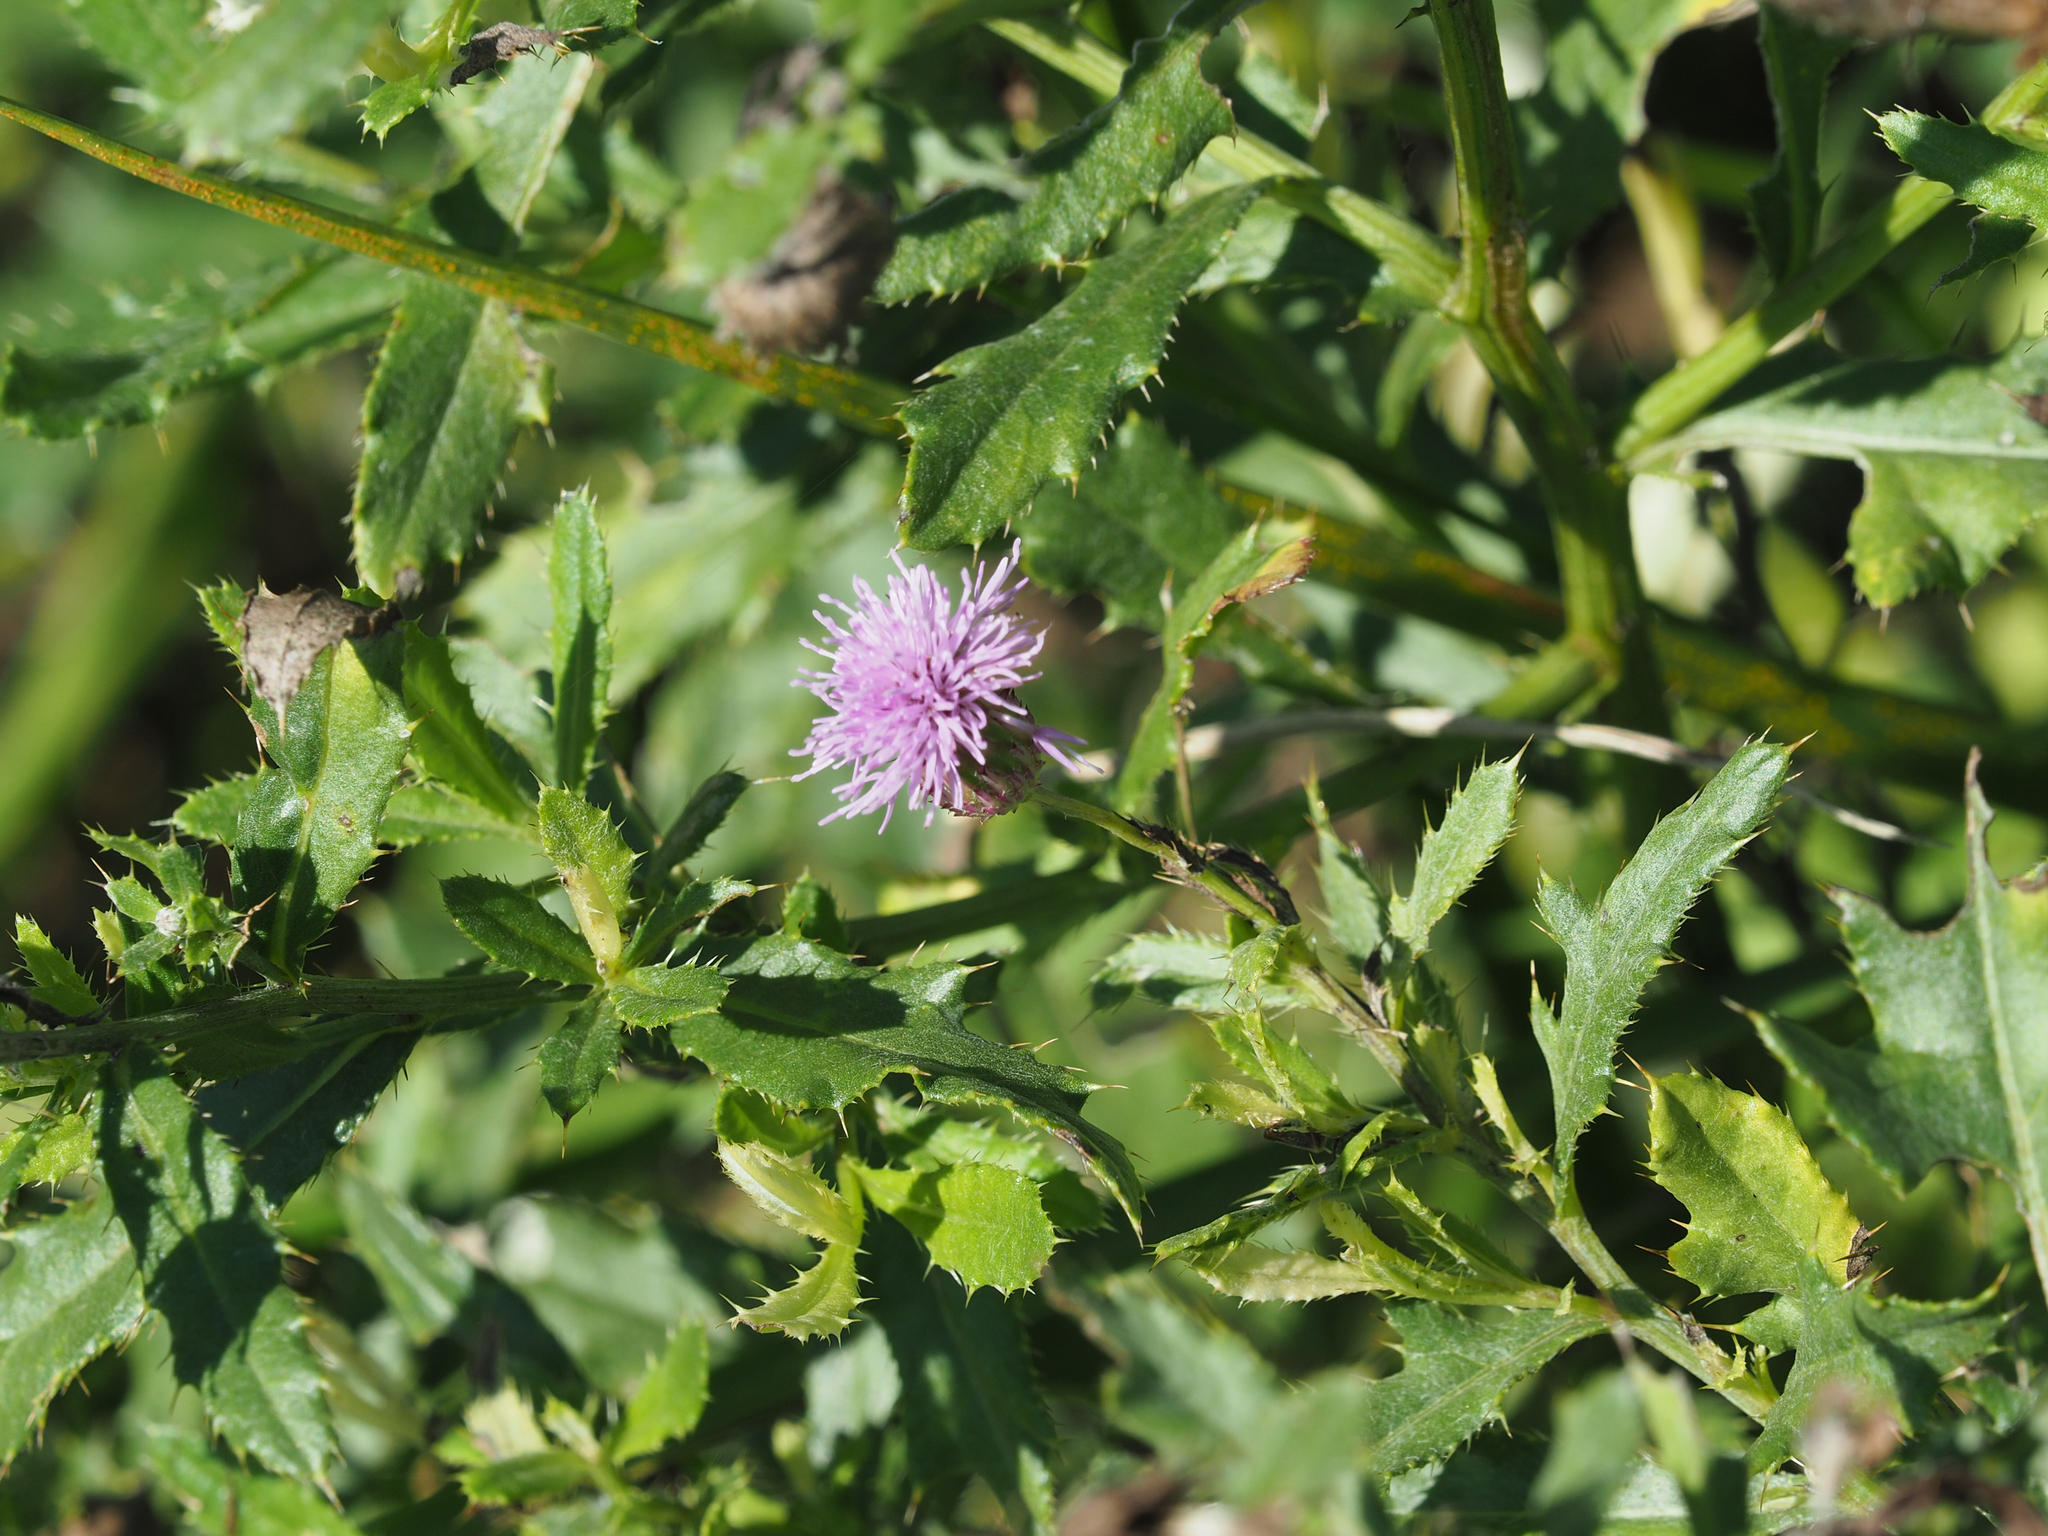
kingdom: Plantae
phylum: Tracheophyta
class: Magnoliopsida
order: Asterales
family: Asteraceae
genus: Cirsium
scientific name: Cirsium arvense
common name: Creeping thistle
